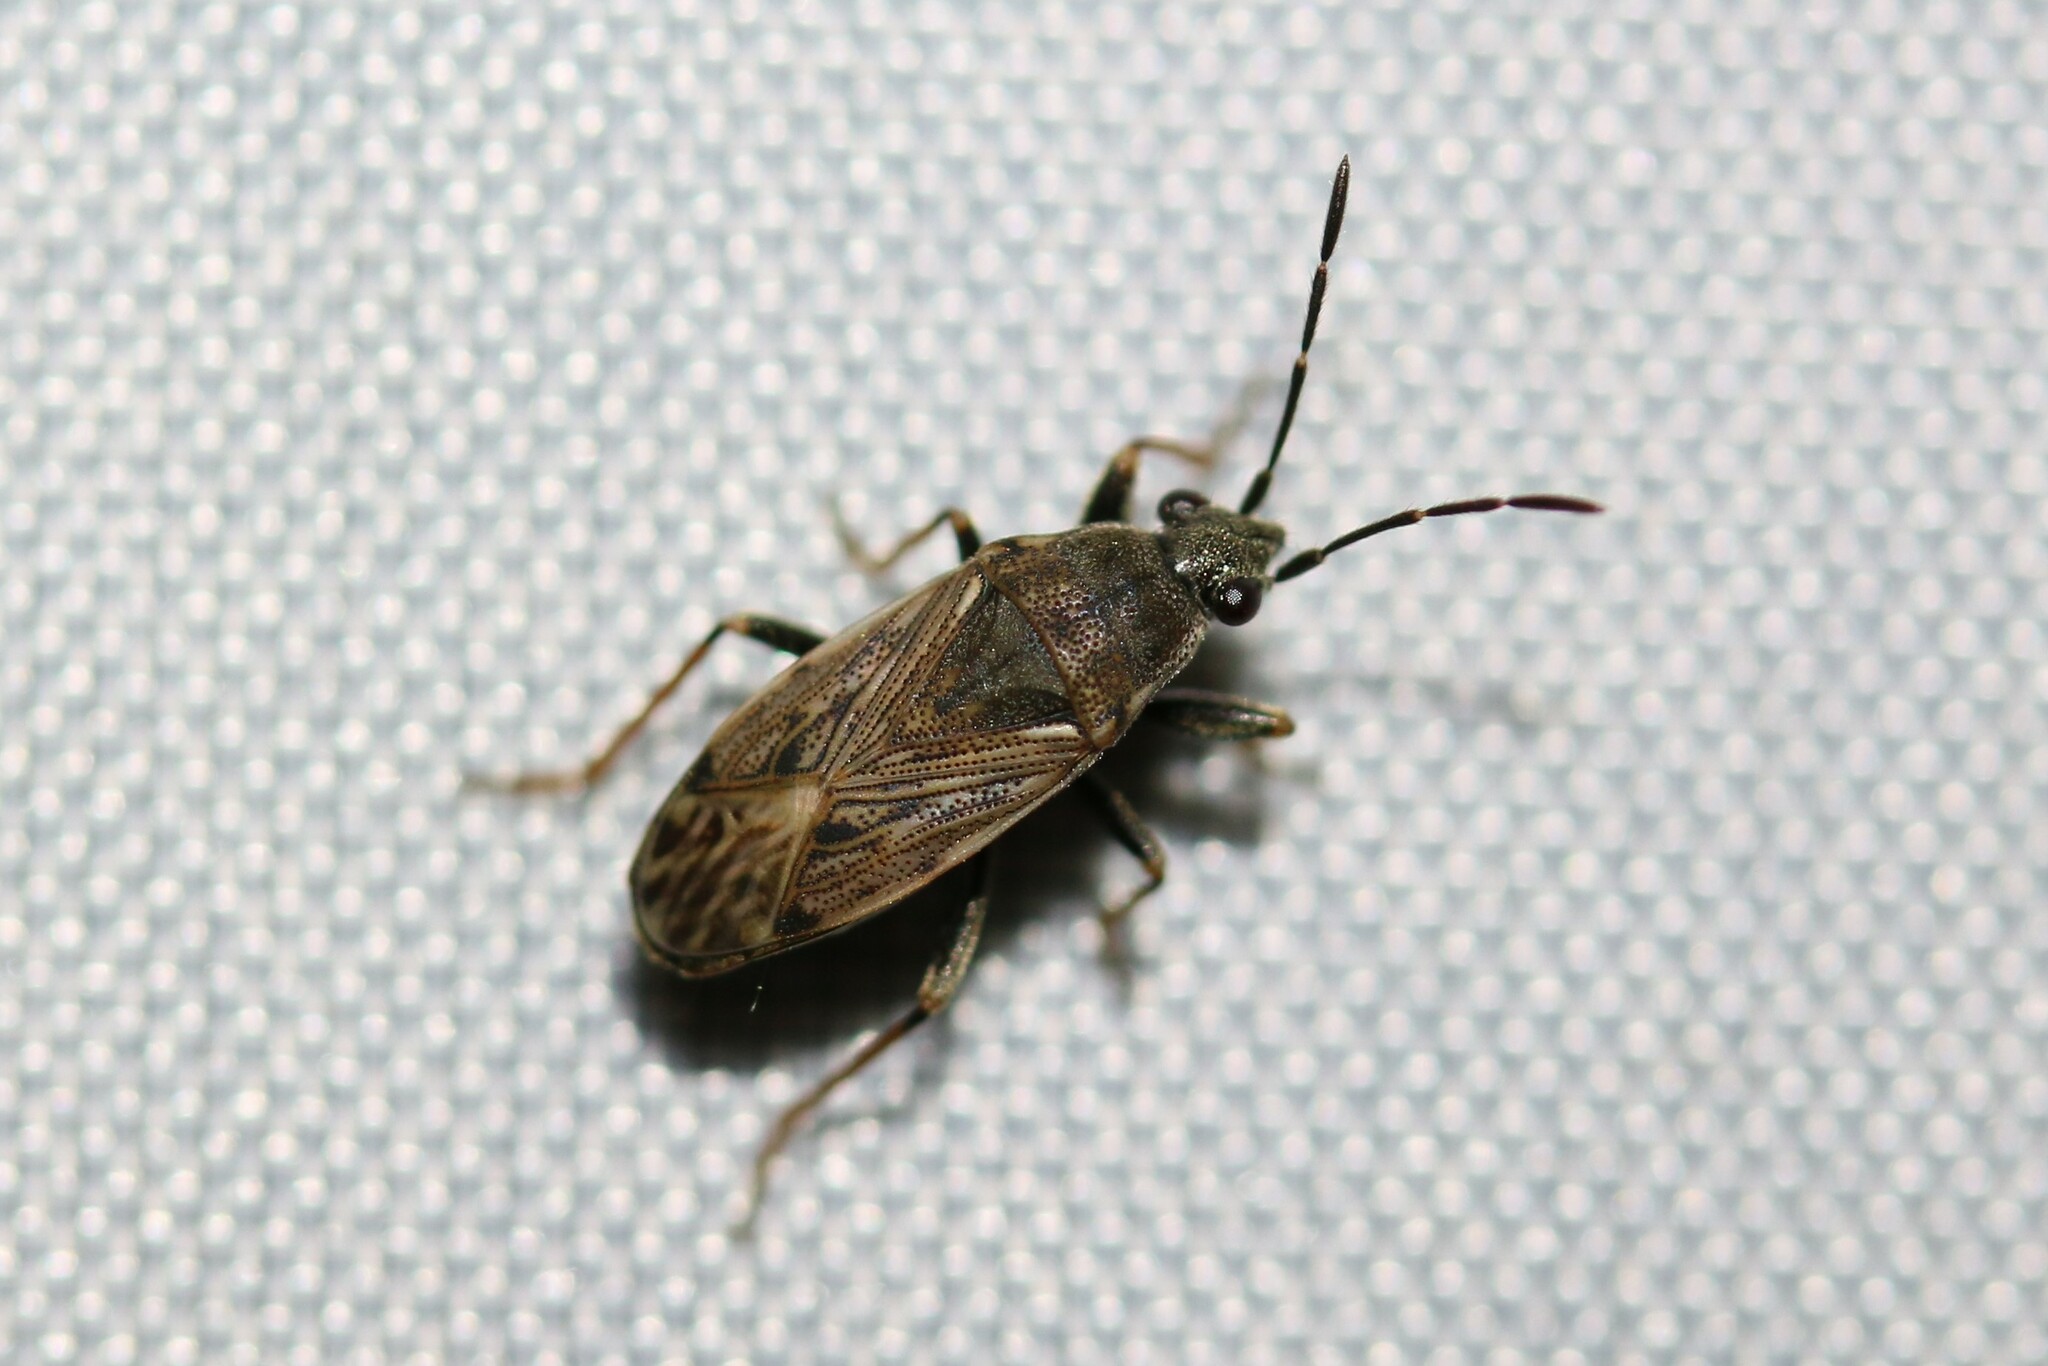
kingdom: Animalia
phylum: Arthropoda
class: Insecta
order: Hemiptera
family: Rhyparochromidae
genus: Peritrechus
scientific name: Peritrechus gracilicornis
